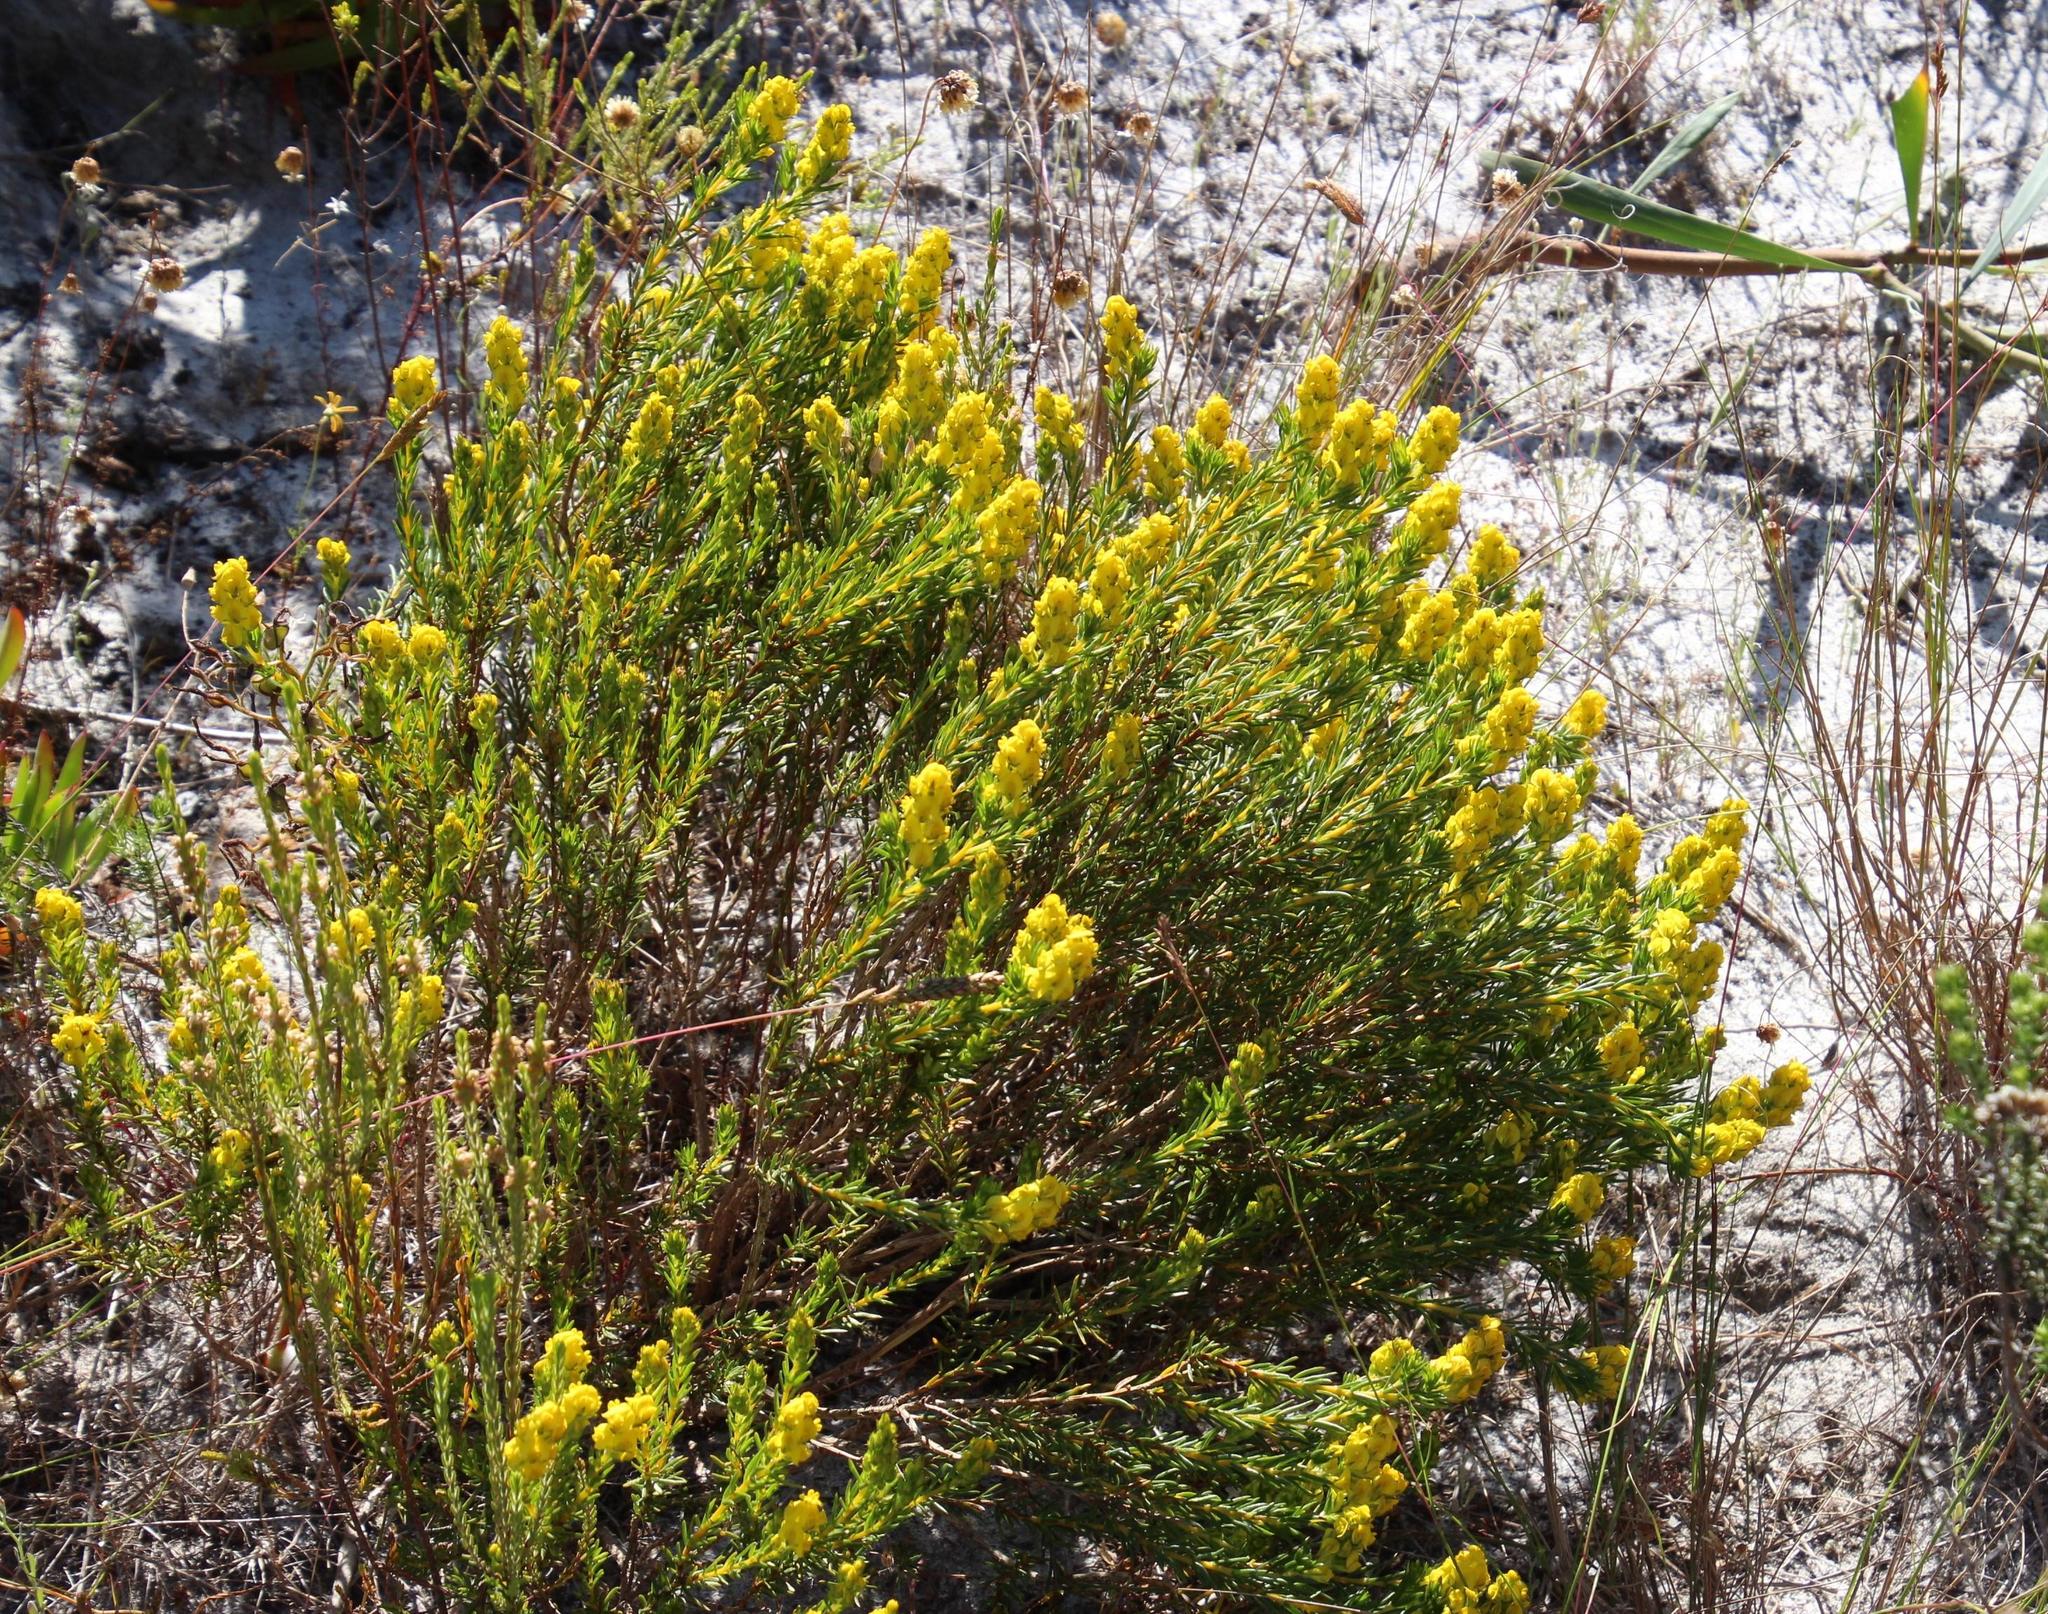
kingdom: Plantae
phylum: Tracheophyta
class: Magnoliopsida
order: Fabales
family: Fabaceae
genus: Aspalathus
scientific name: Aspalathus callosa
